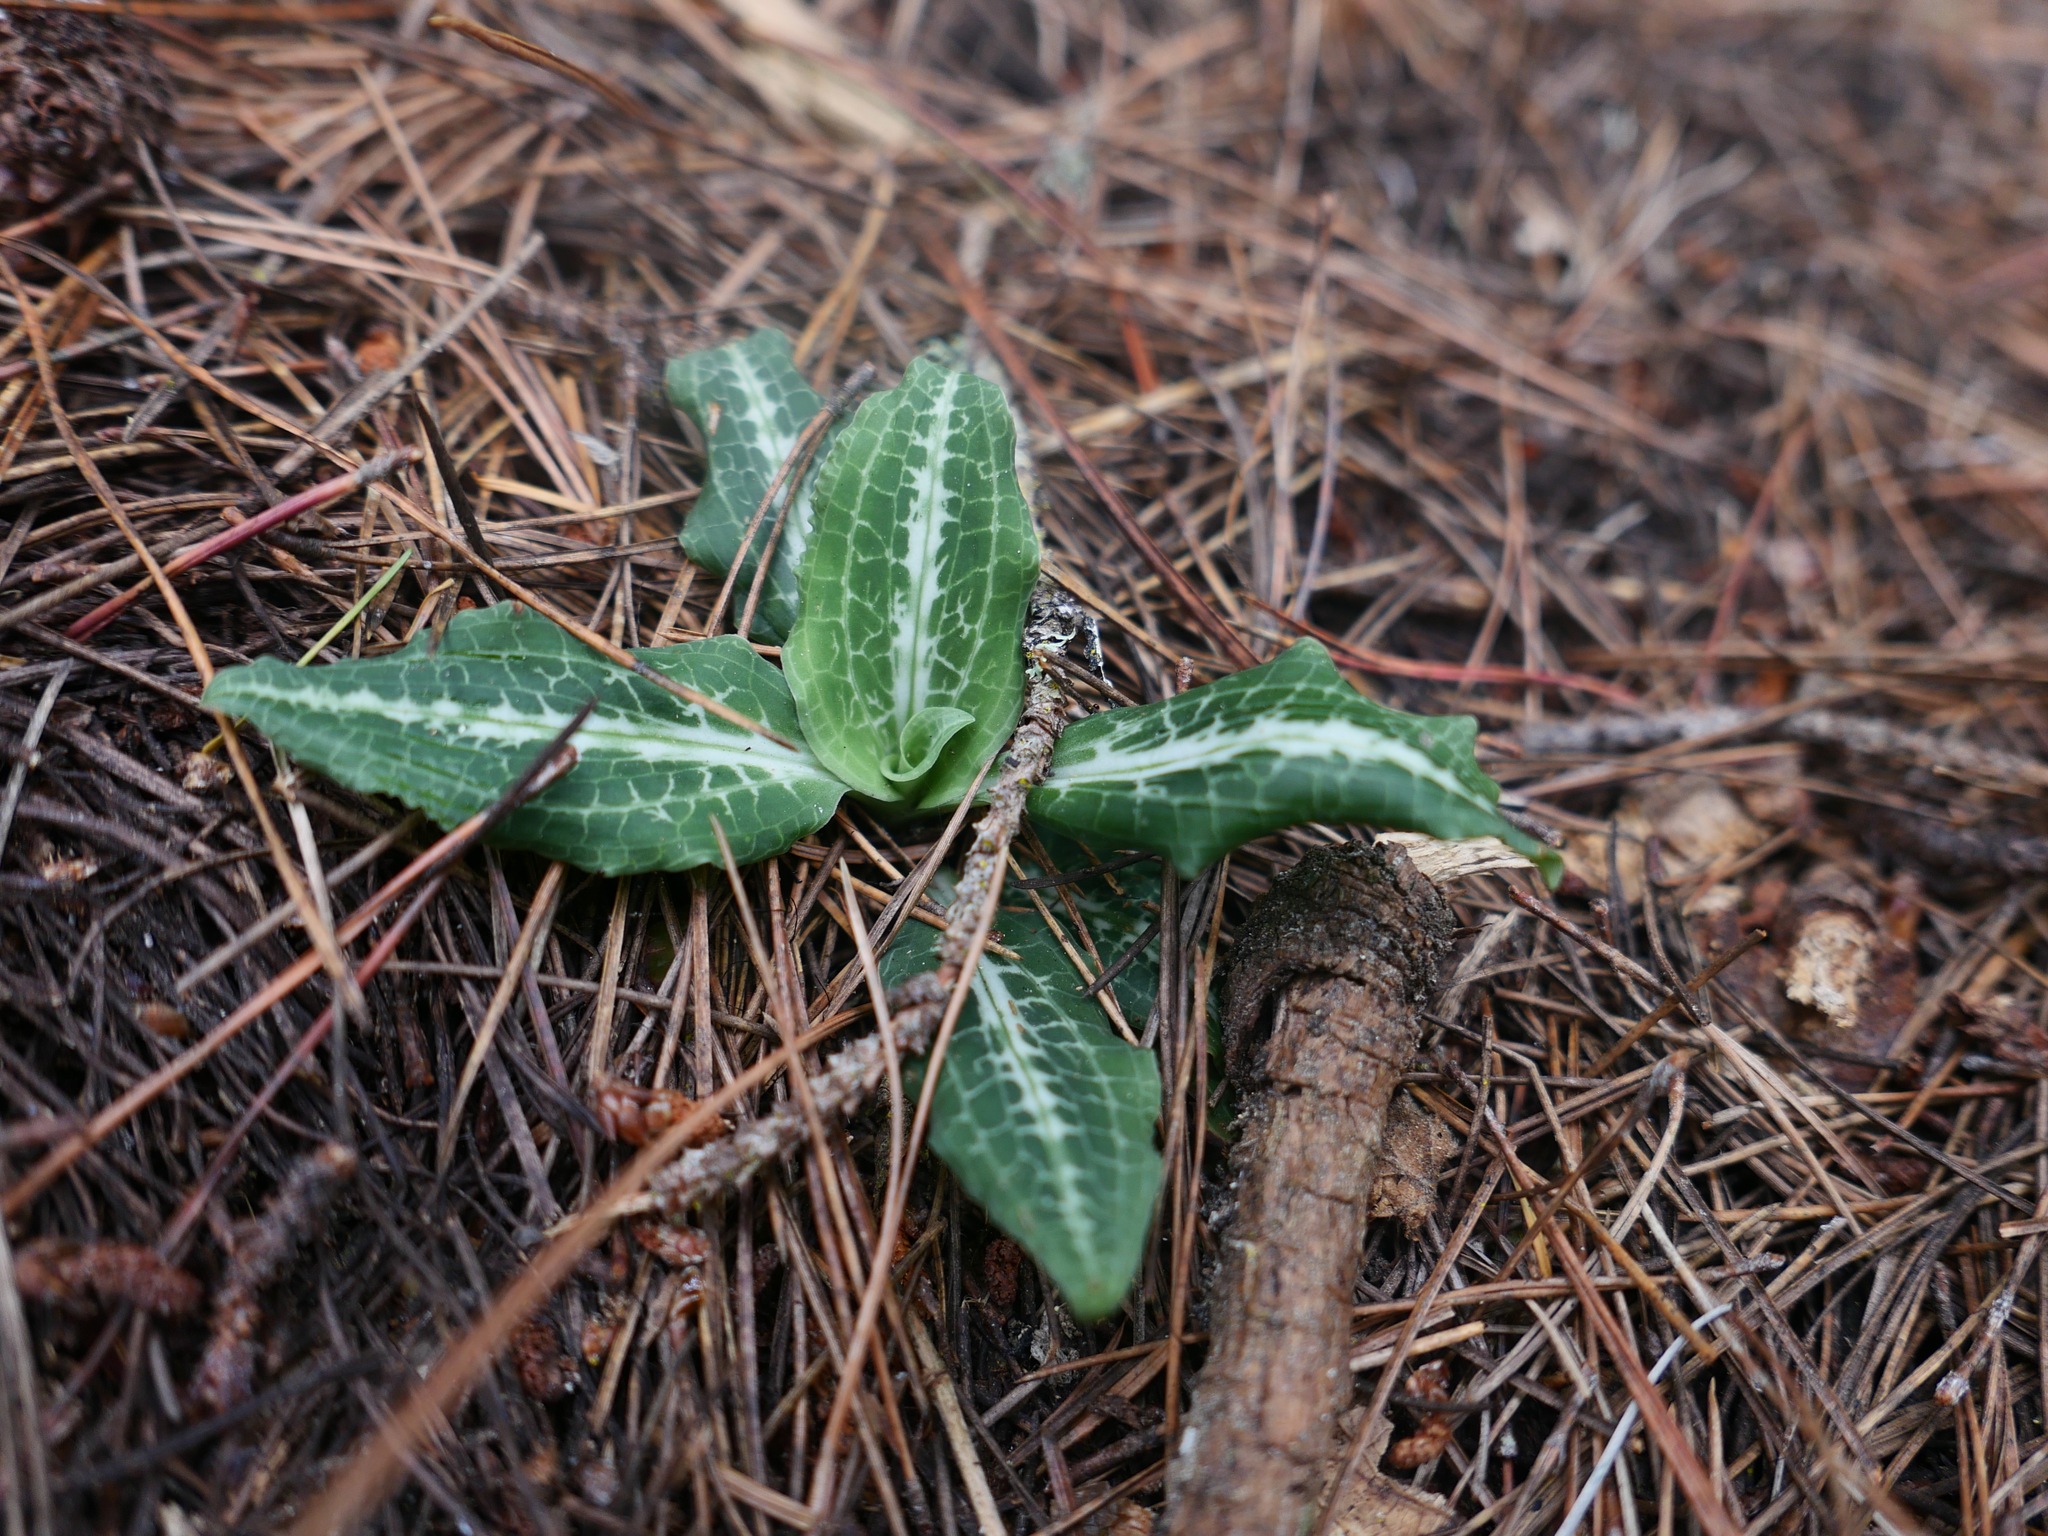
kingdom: Plantae
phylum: Tracheophyta
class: Liliopsida
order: Asparagales
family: Orchidaceae
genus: Goodyera
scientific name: Goodyera oblongifolia
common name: Giant rattlesnake-plantain
